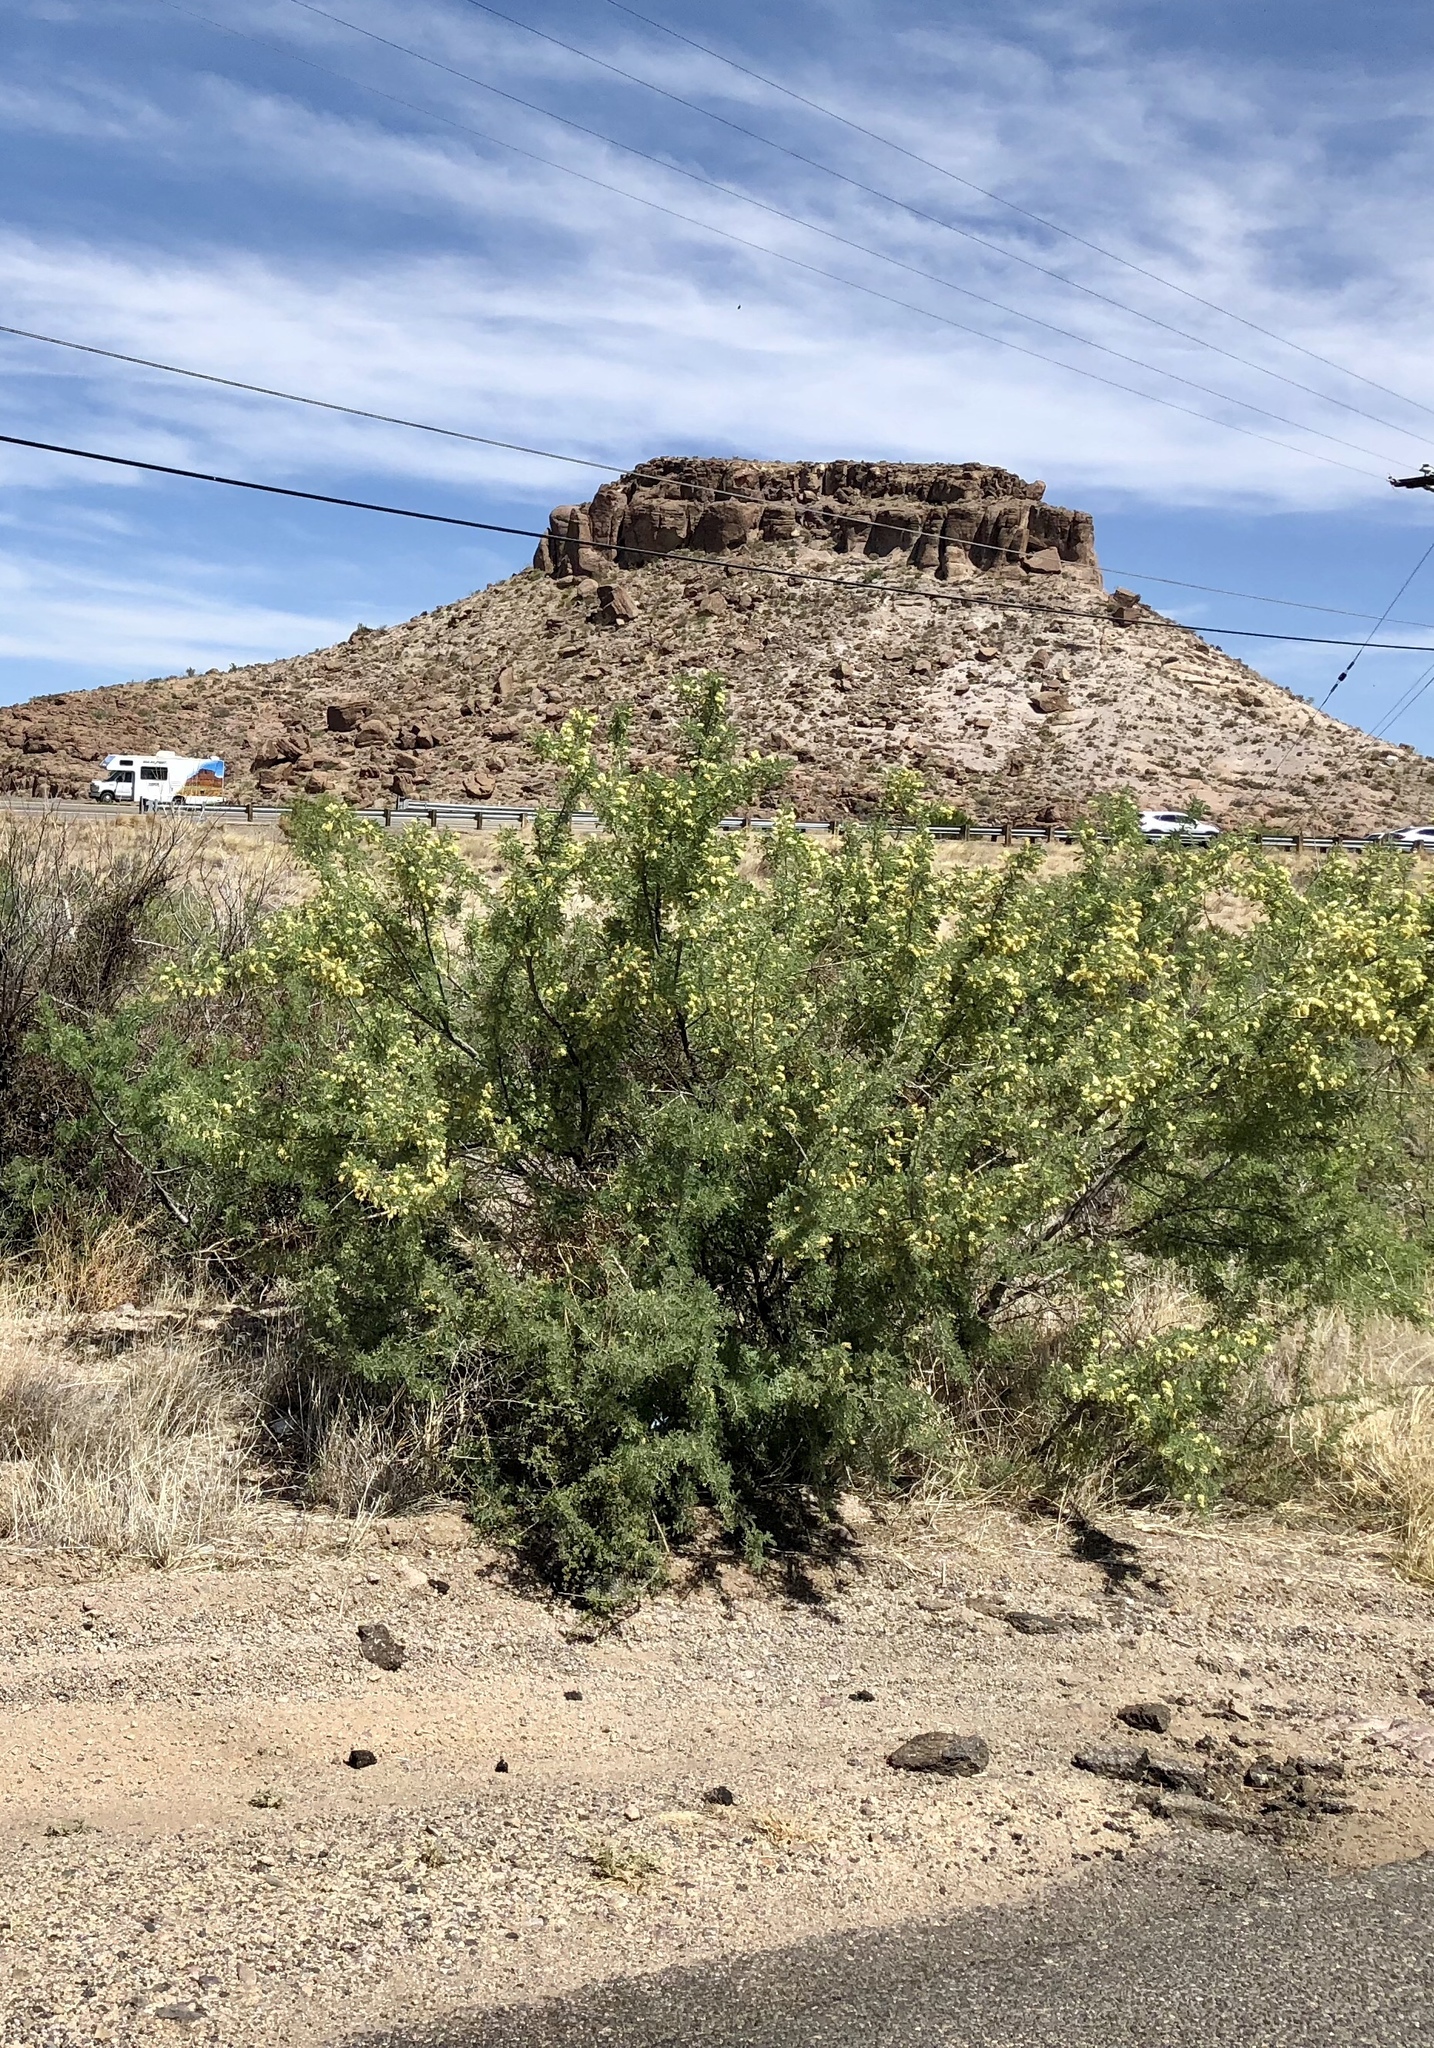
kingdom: Plantae
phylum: Tracheophyta
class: Magnoliopsida
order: Fabales
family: Fabaceae
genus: Senegalia
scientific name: Senegalia greggii
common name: Texas-mimosa
